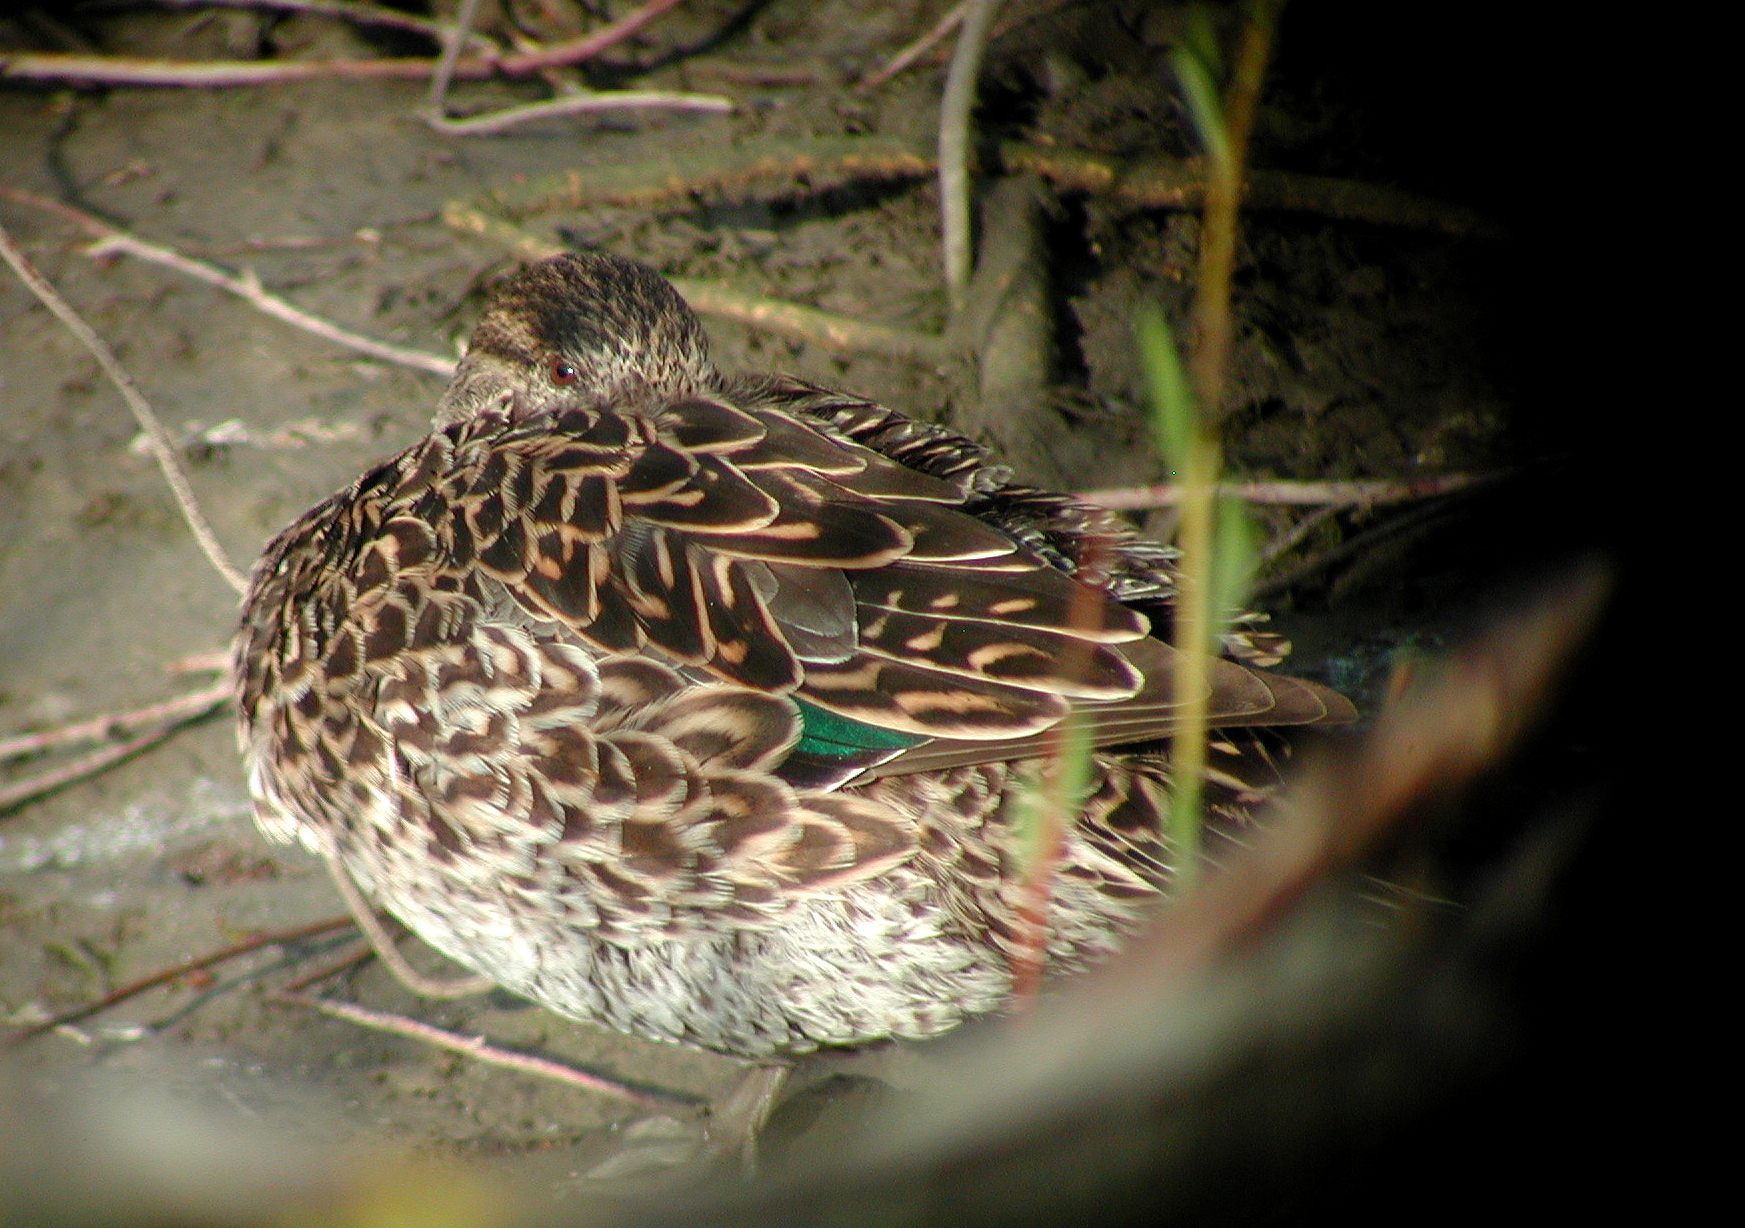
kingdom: Animalia
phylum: Chordata
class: Aves
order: Anseriformes
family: Anatidae
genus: Anas
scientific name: Anas crecca
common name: Eurasian teal
